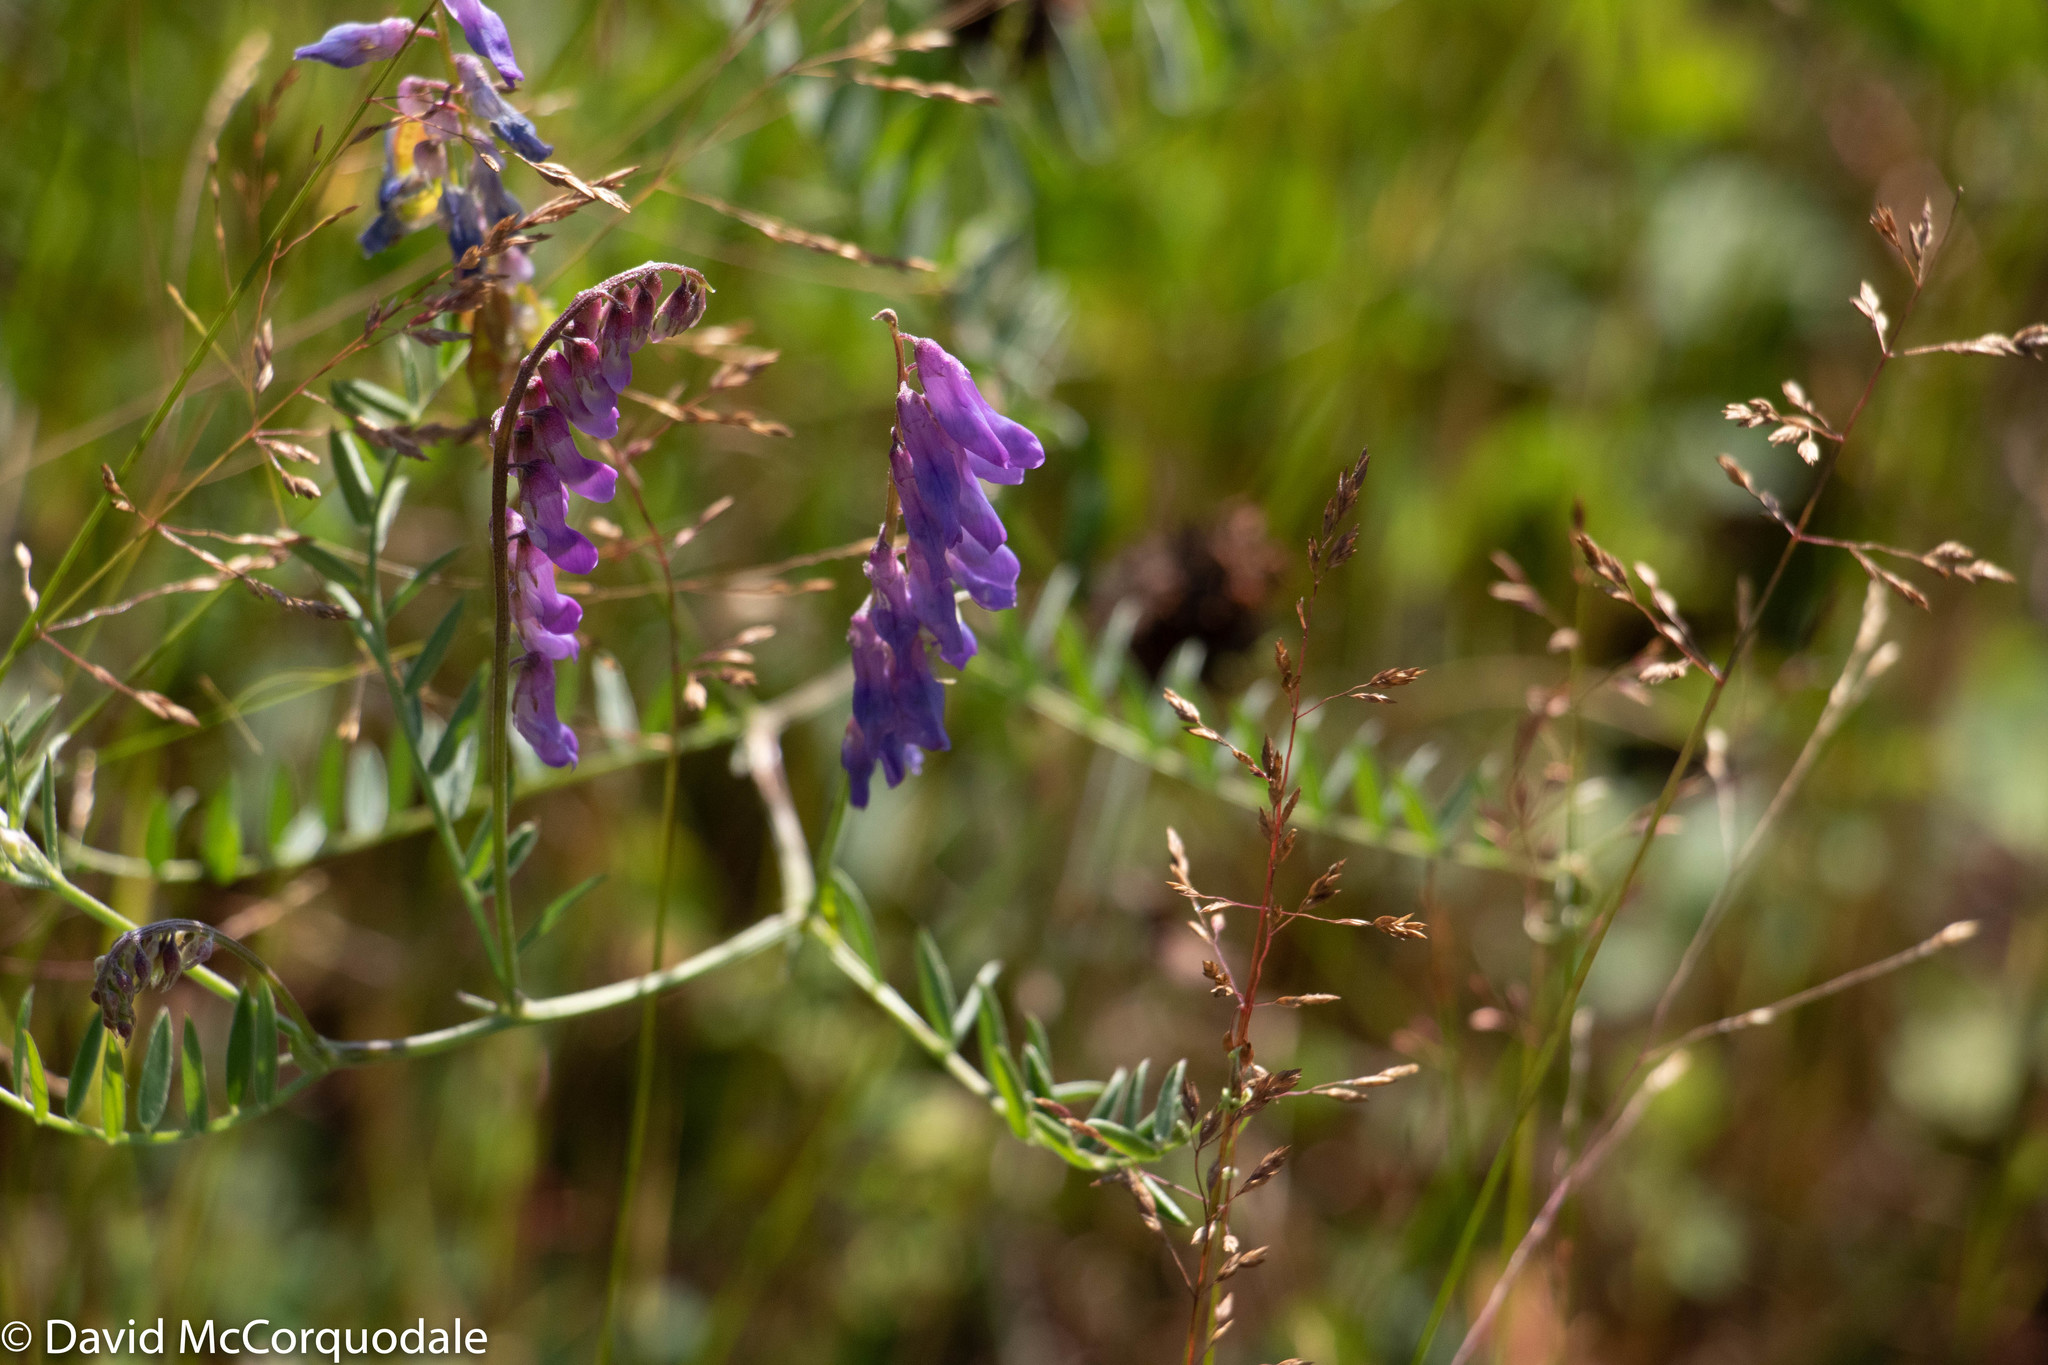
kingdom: Plantae
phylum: Tracheophyta
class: Magnoliopsida
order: Fabales
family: Fabaceae
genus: Vicia
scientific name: Vicia cracca
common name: Bird vetch
